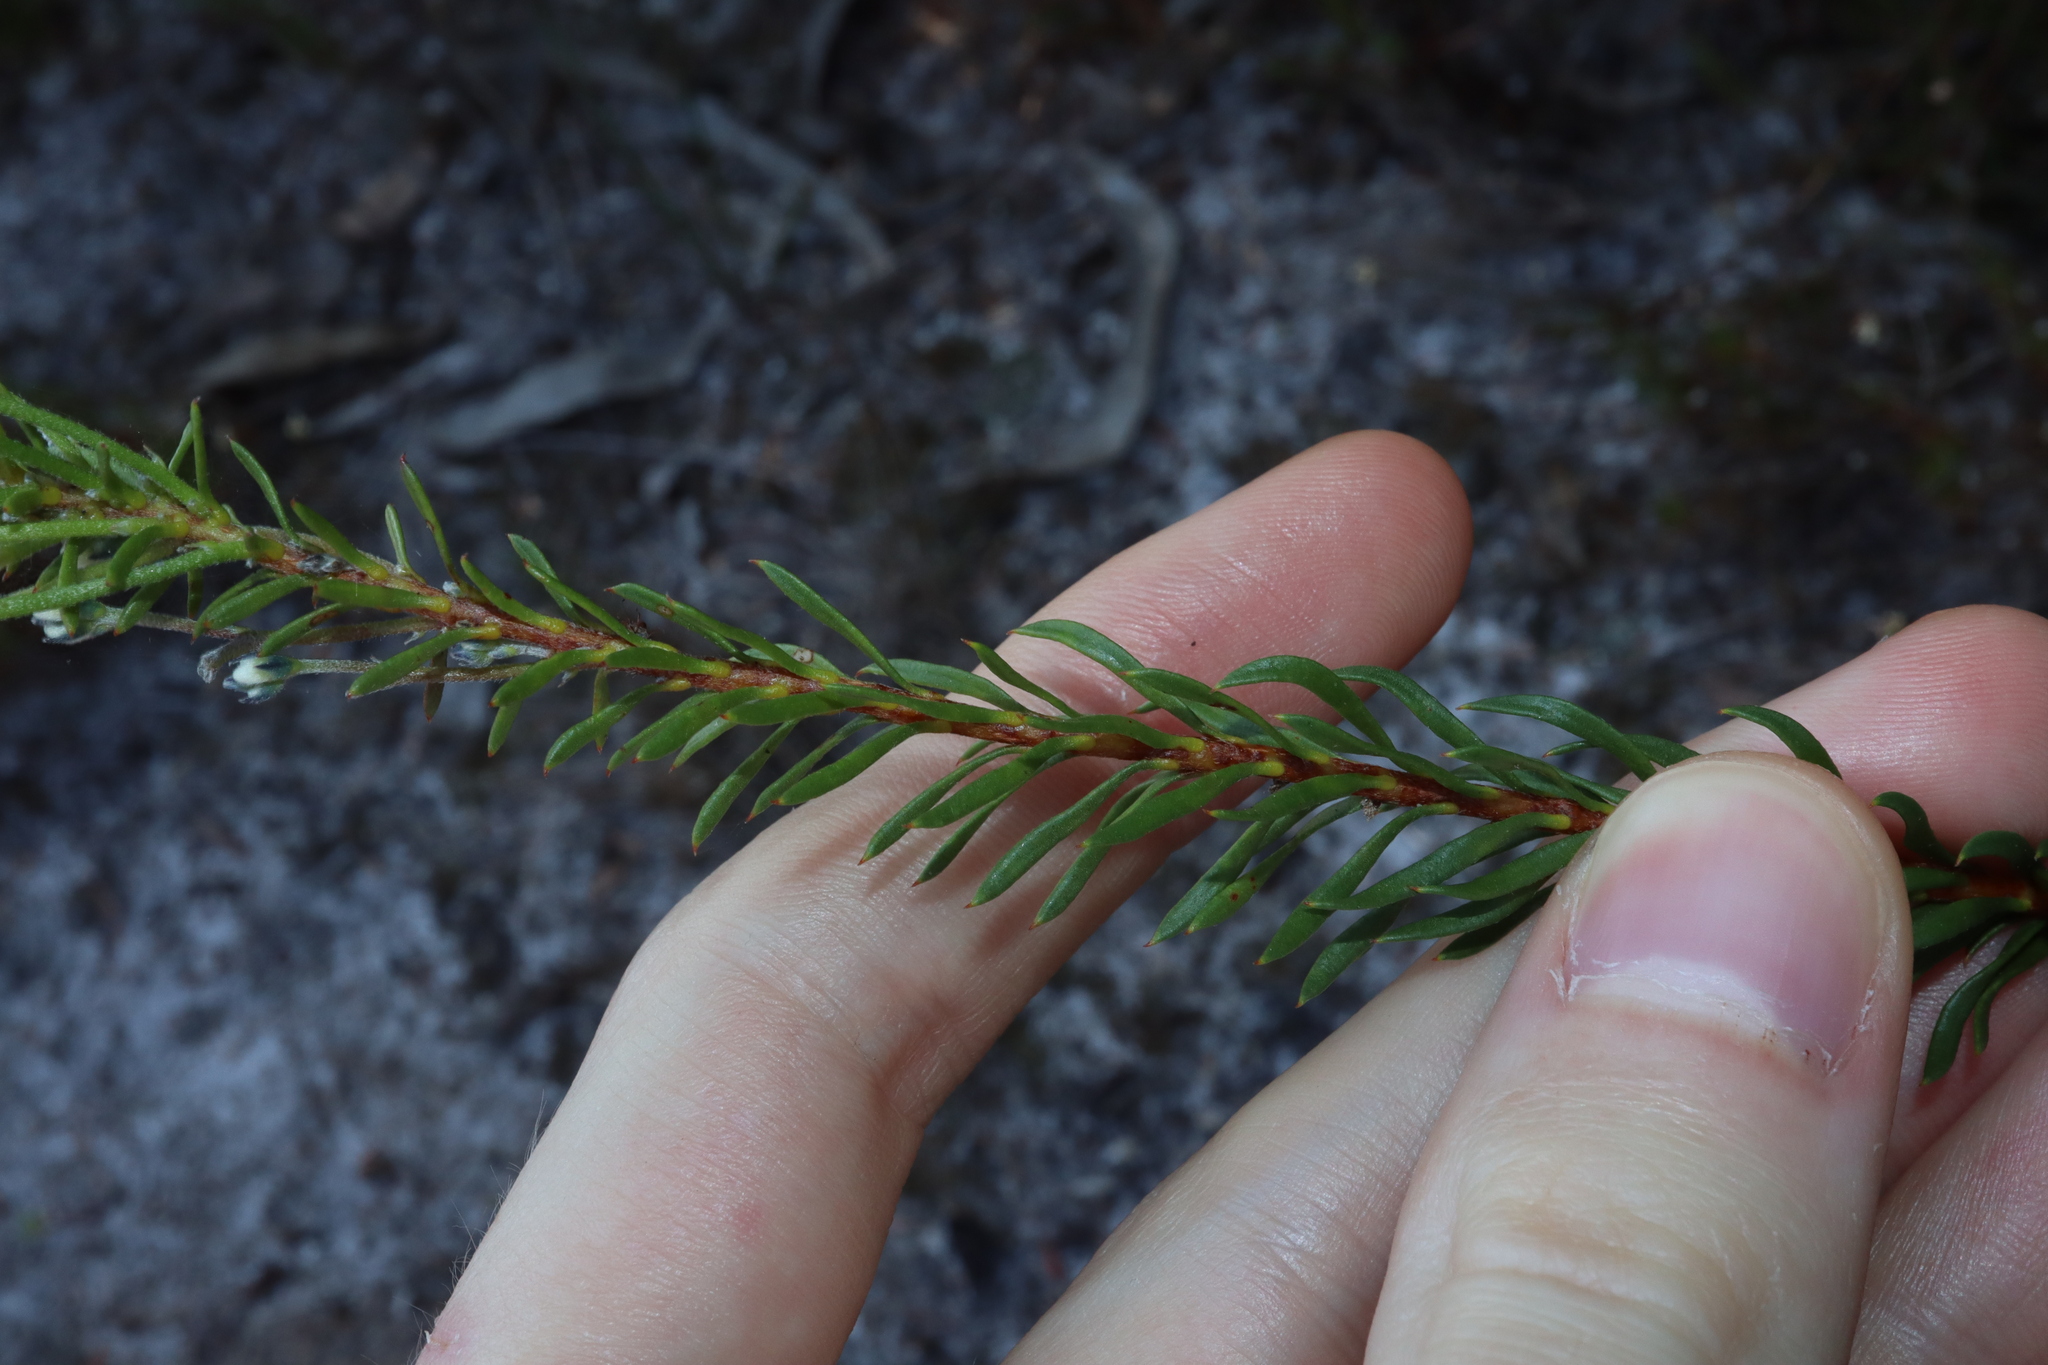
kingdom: Plantae
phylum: Tracheophyta
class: Magnoliopsida
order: Proteales
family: Proteaceae
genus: Conospermum
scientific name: Conospermum taxifolium
